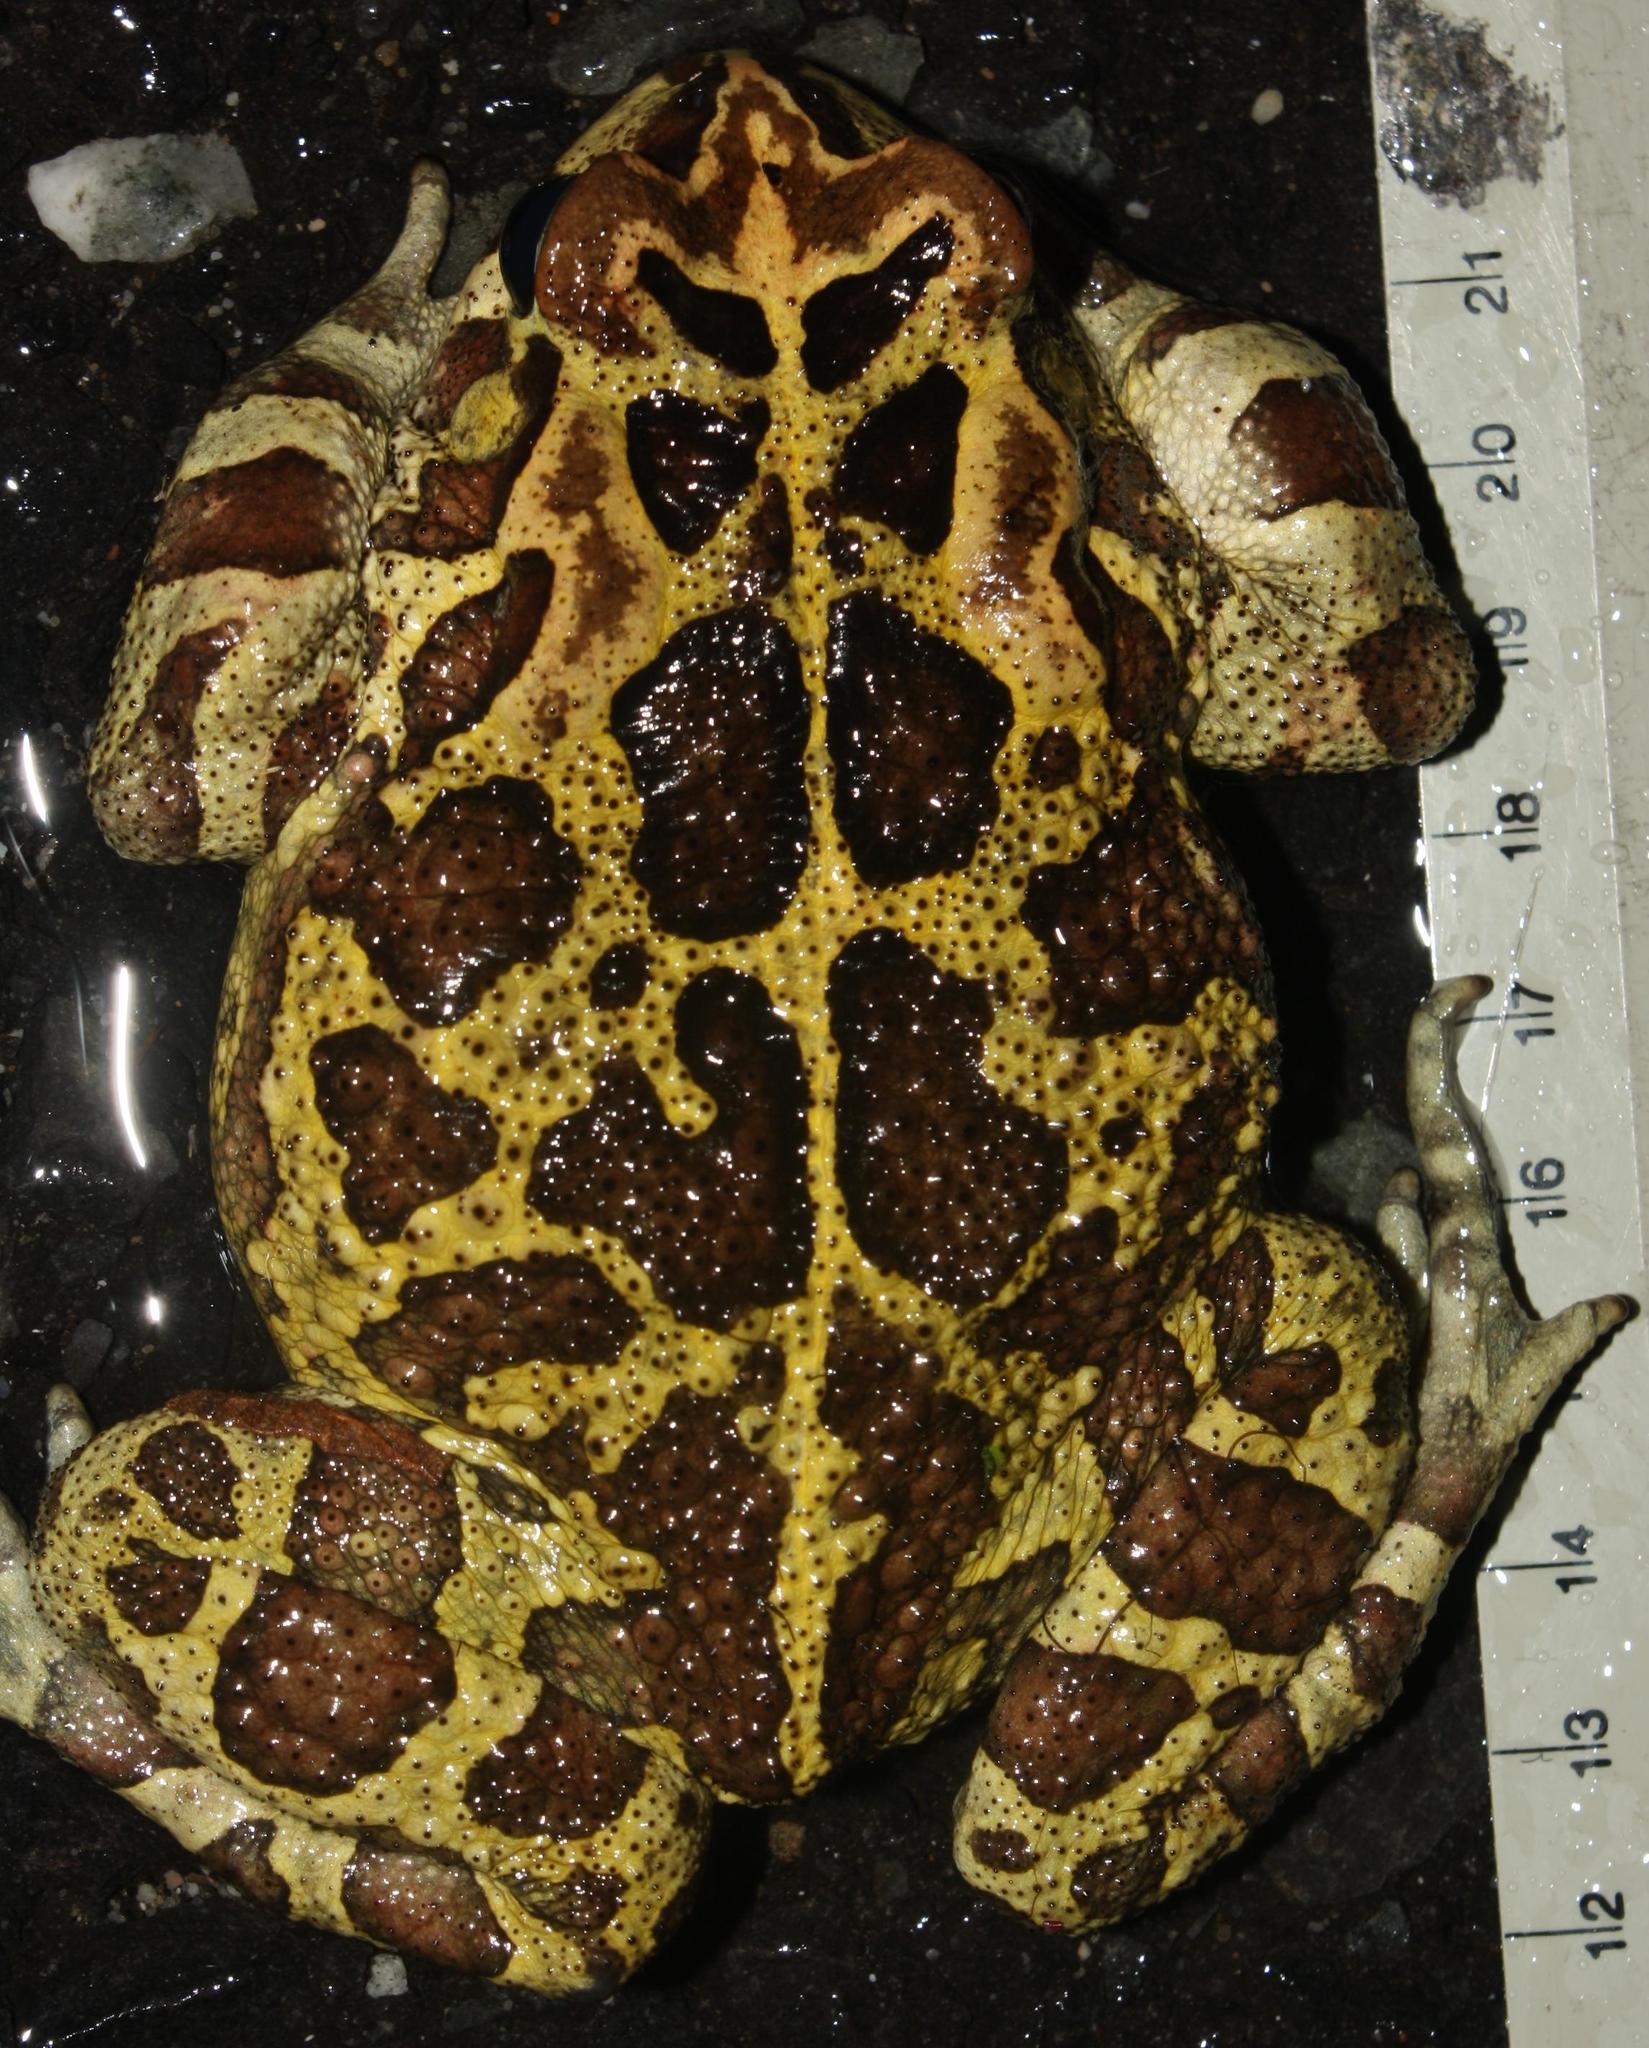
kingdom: Animalia
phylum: Chordata
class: Amphibia
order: Anura
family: Bufonidae
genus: Sclerophrys
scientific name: Sclerophrys pantherina
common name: Panther toad
